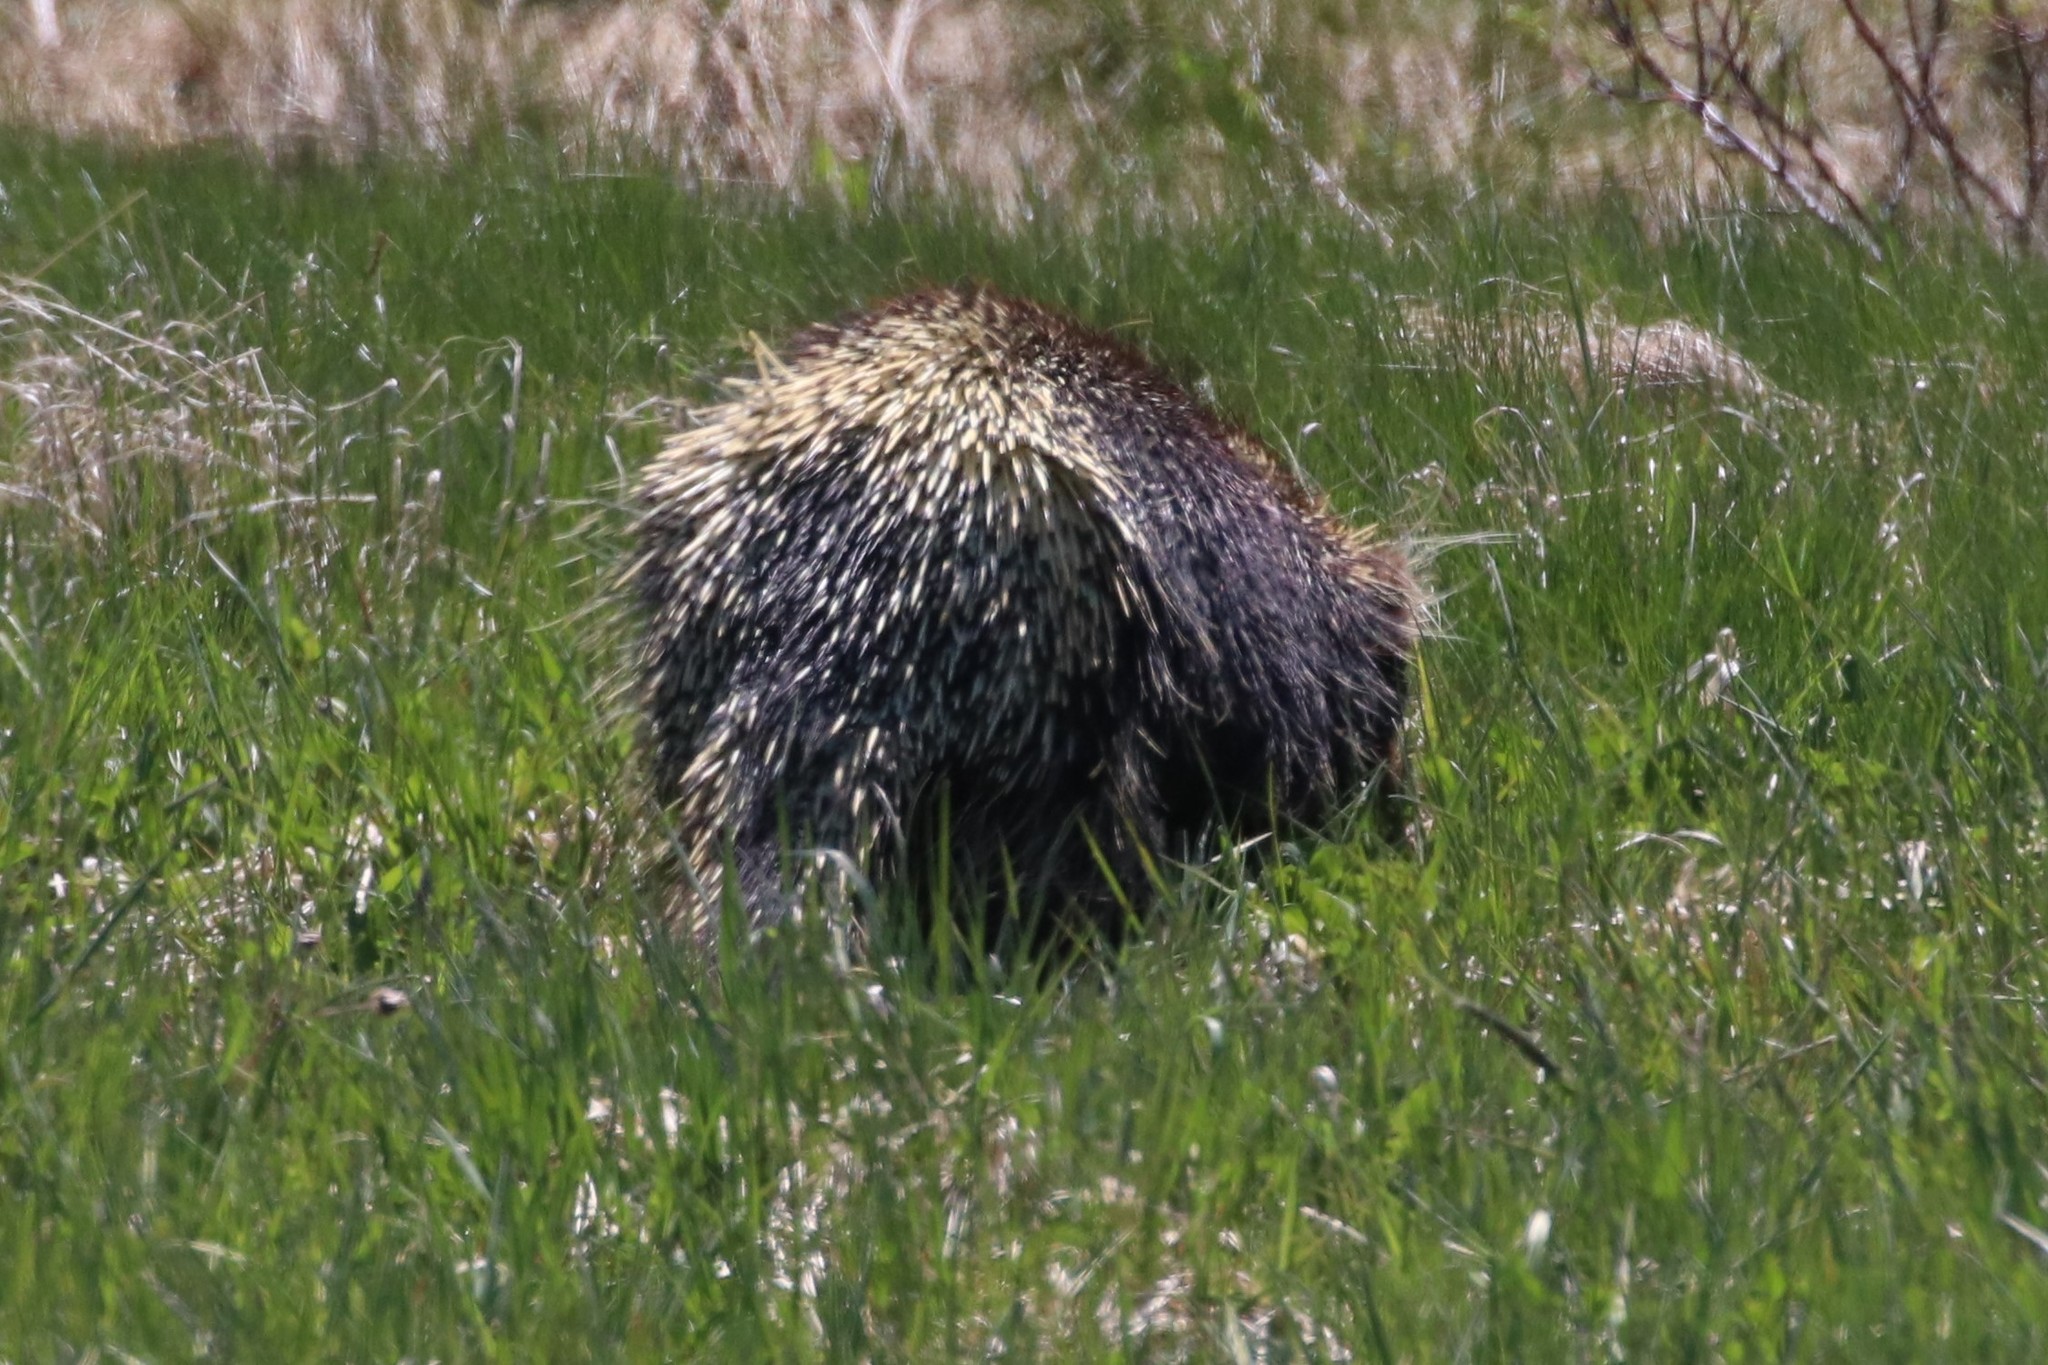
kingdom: Animalia
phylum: Chordata
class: Mammalia
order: Rodentia
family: Erethizontidae
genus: Erethizon
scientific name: Erethizon dorsatus
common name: North american porcupine
